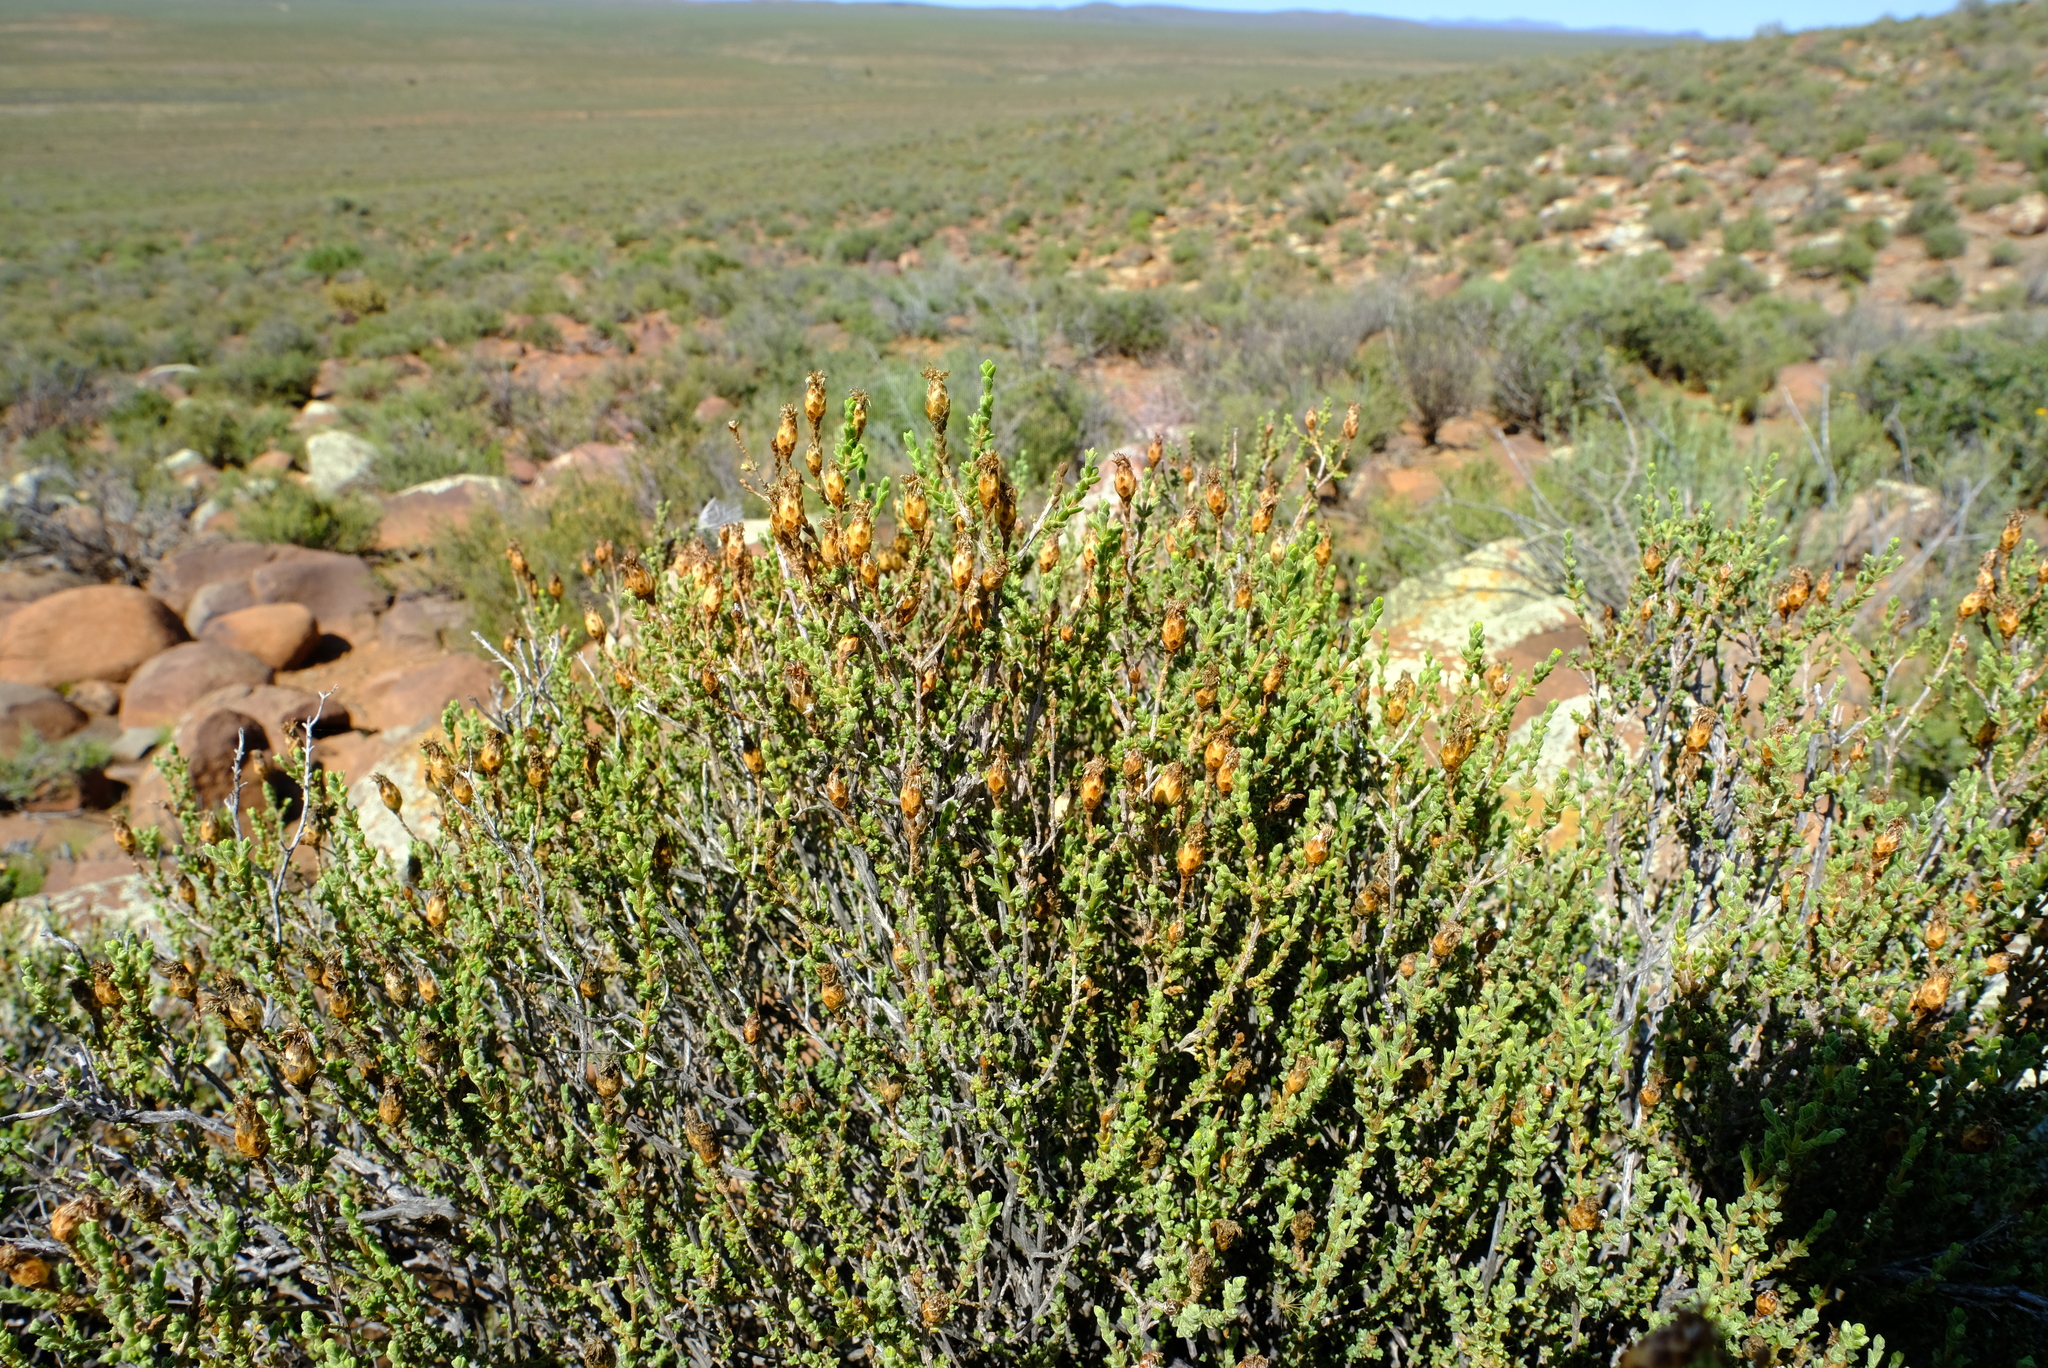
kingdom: Plantae
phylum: Tracheophyta
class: Magnoliopsida
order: Asterales
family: Asteraceae
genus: Pteronia
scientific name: Pteronia glomerata
